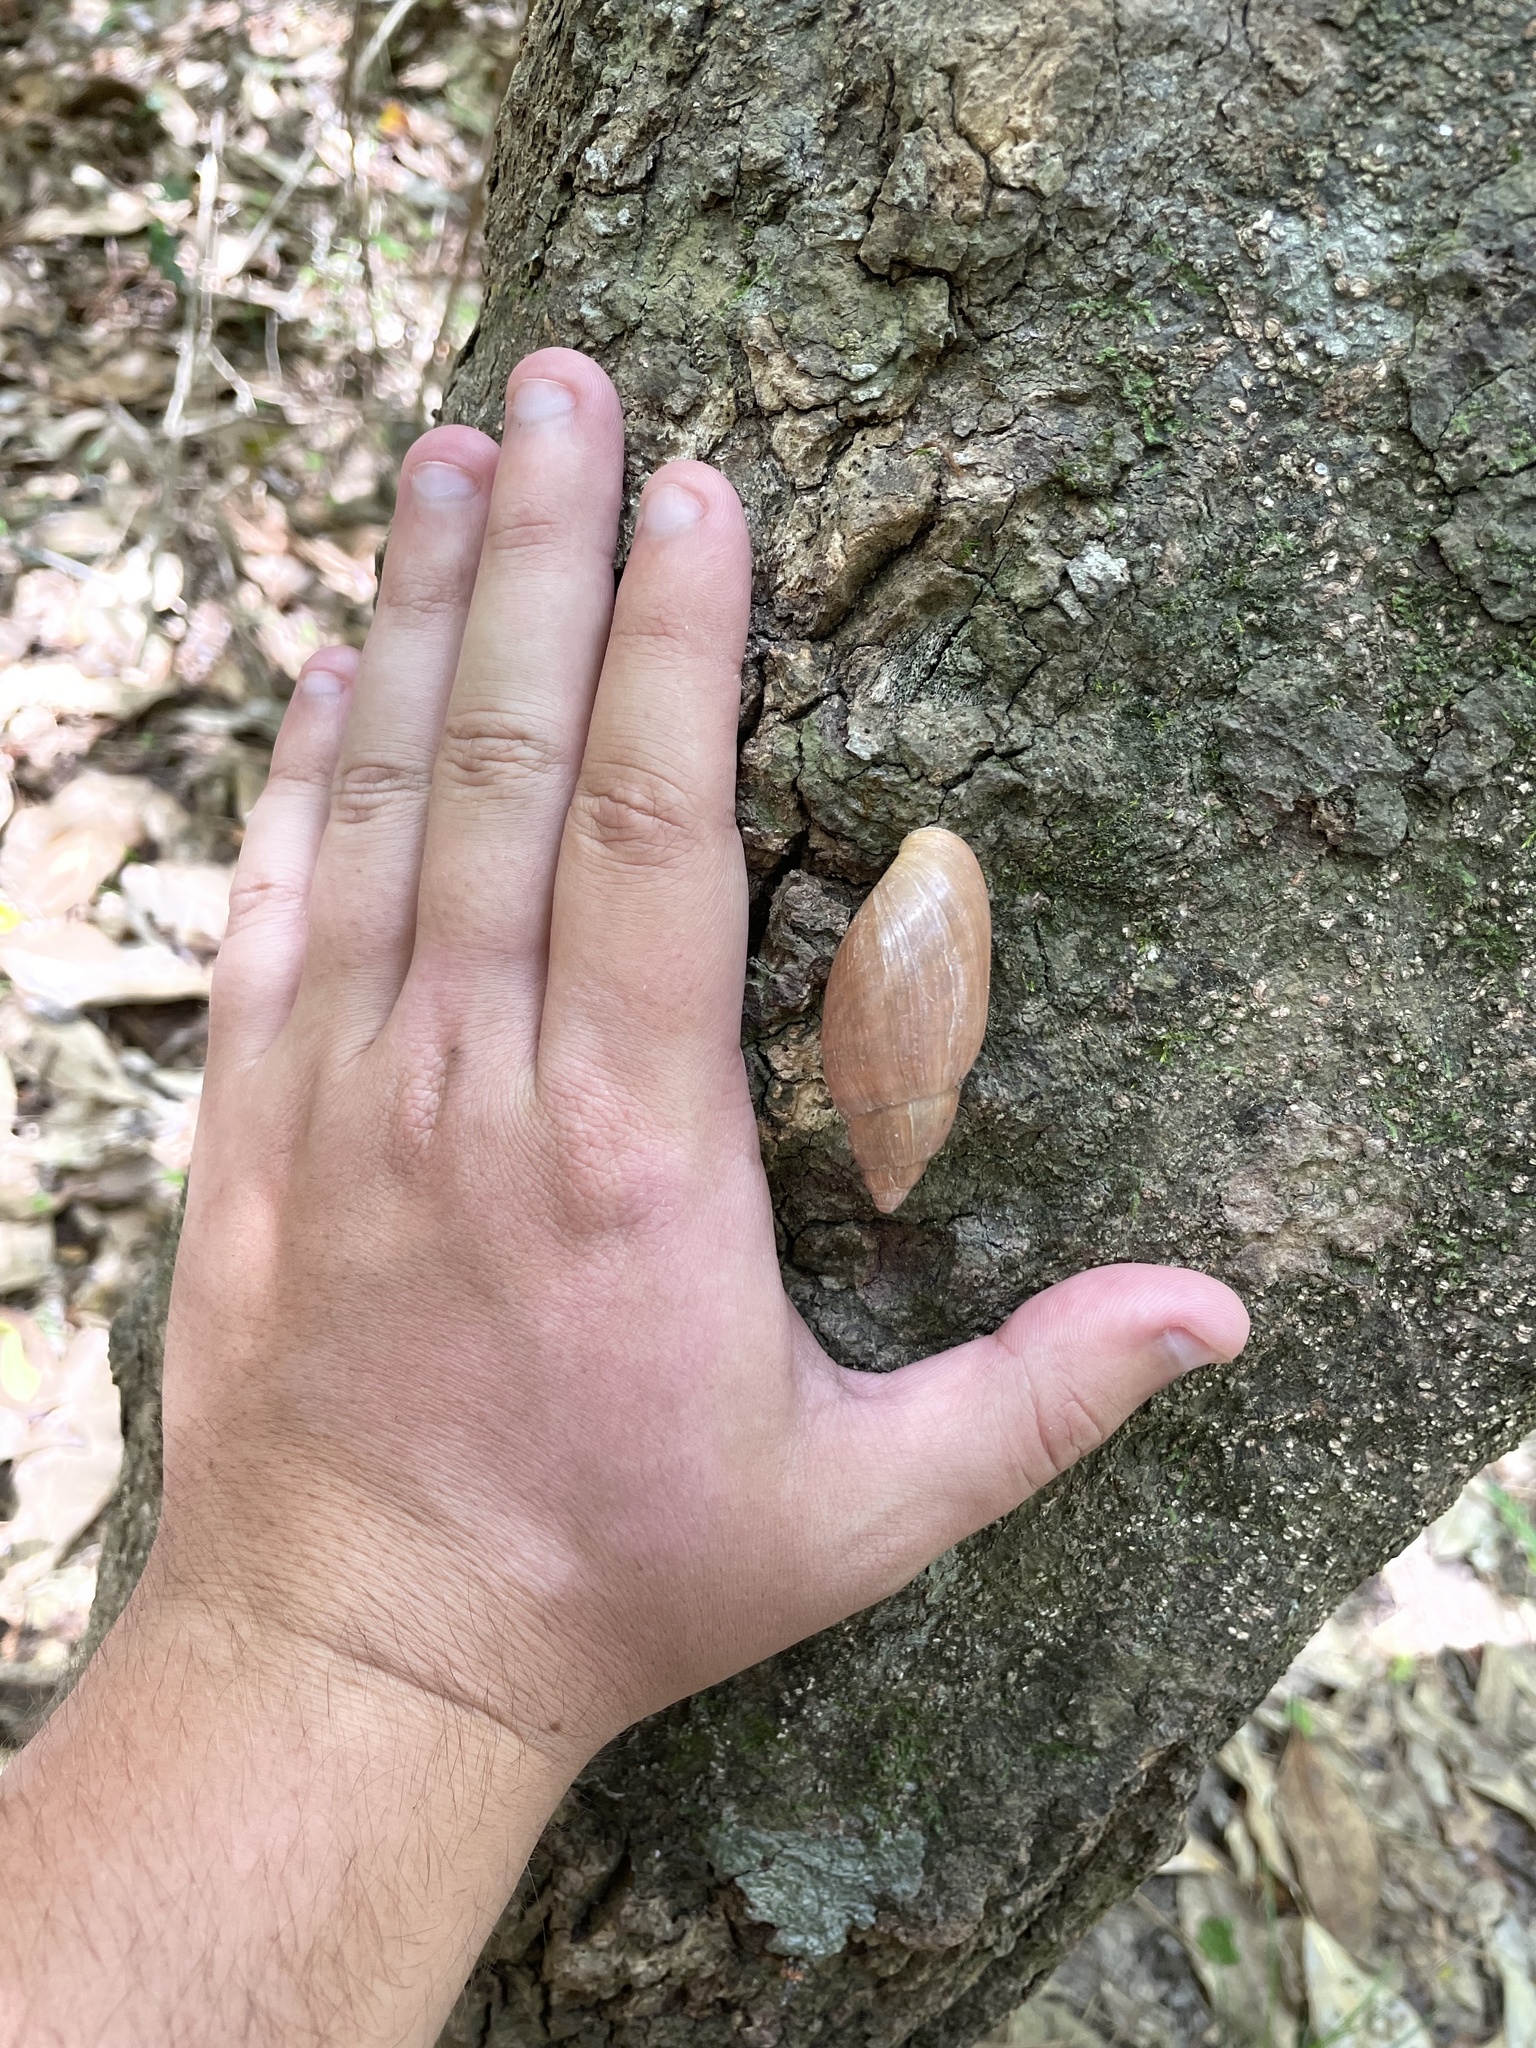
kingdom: Animalia
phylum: Mollusca
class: Gastropoda
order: Stylommatophora
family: Spiraxidae
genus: Euglandina
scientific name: Euglandina rosea
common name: Rosy wolfsnail
